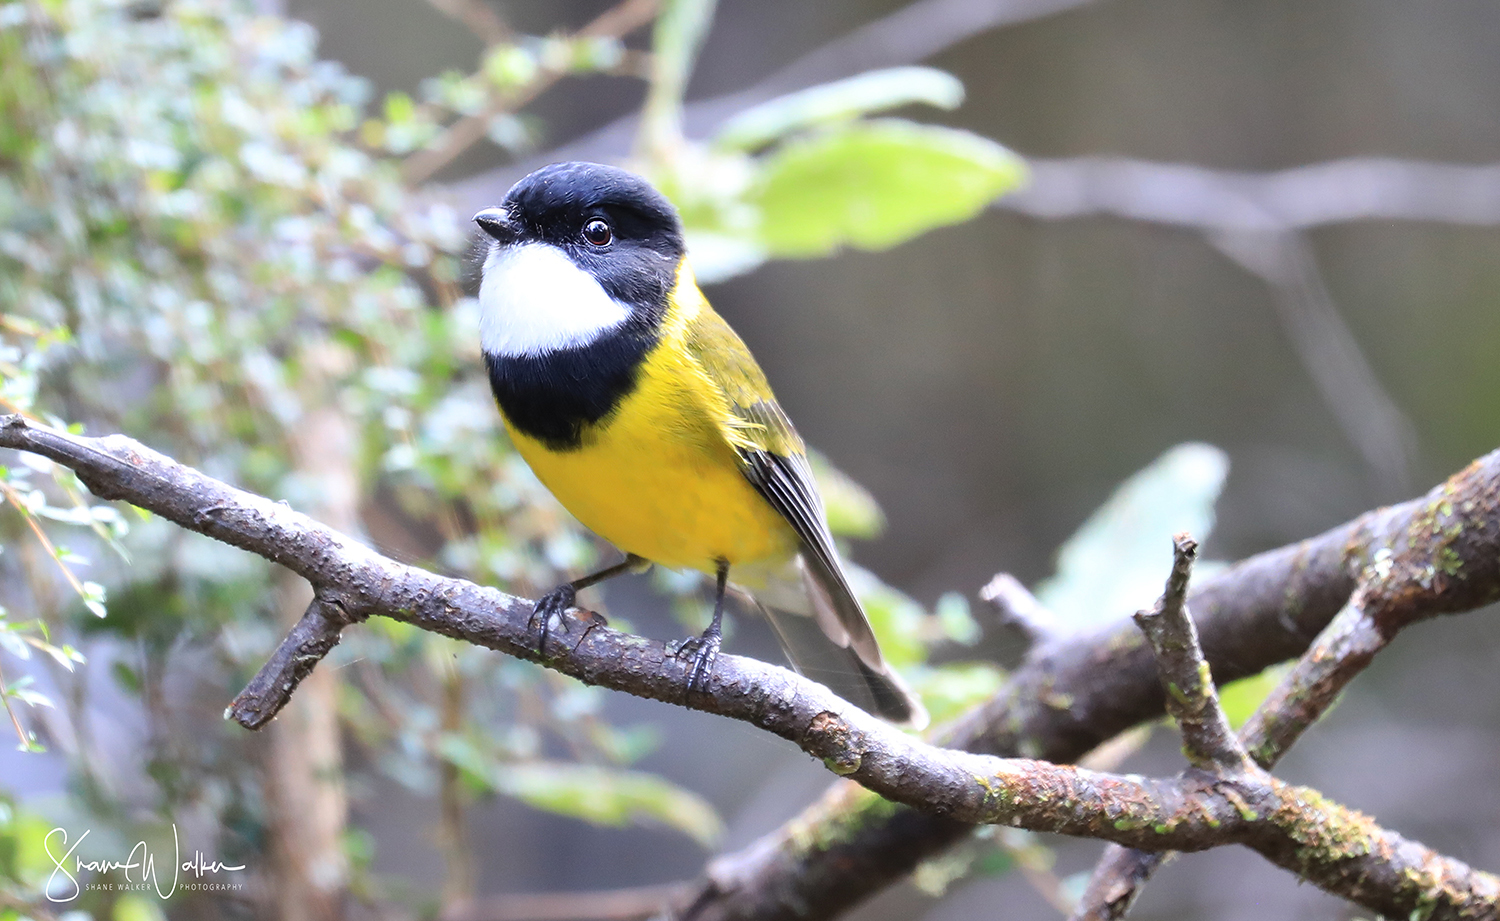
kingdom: Animalia
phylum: Chordata
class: Aves
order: Passeriformes
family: Pachycephalidae
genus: Pachycephala
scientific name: Pachycephala pectoralis
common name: Australian golden whistler
